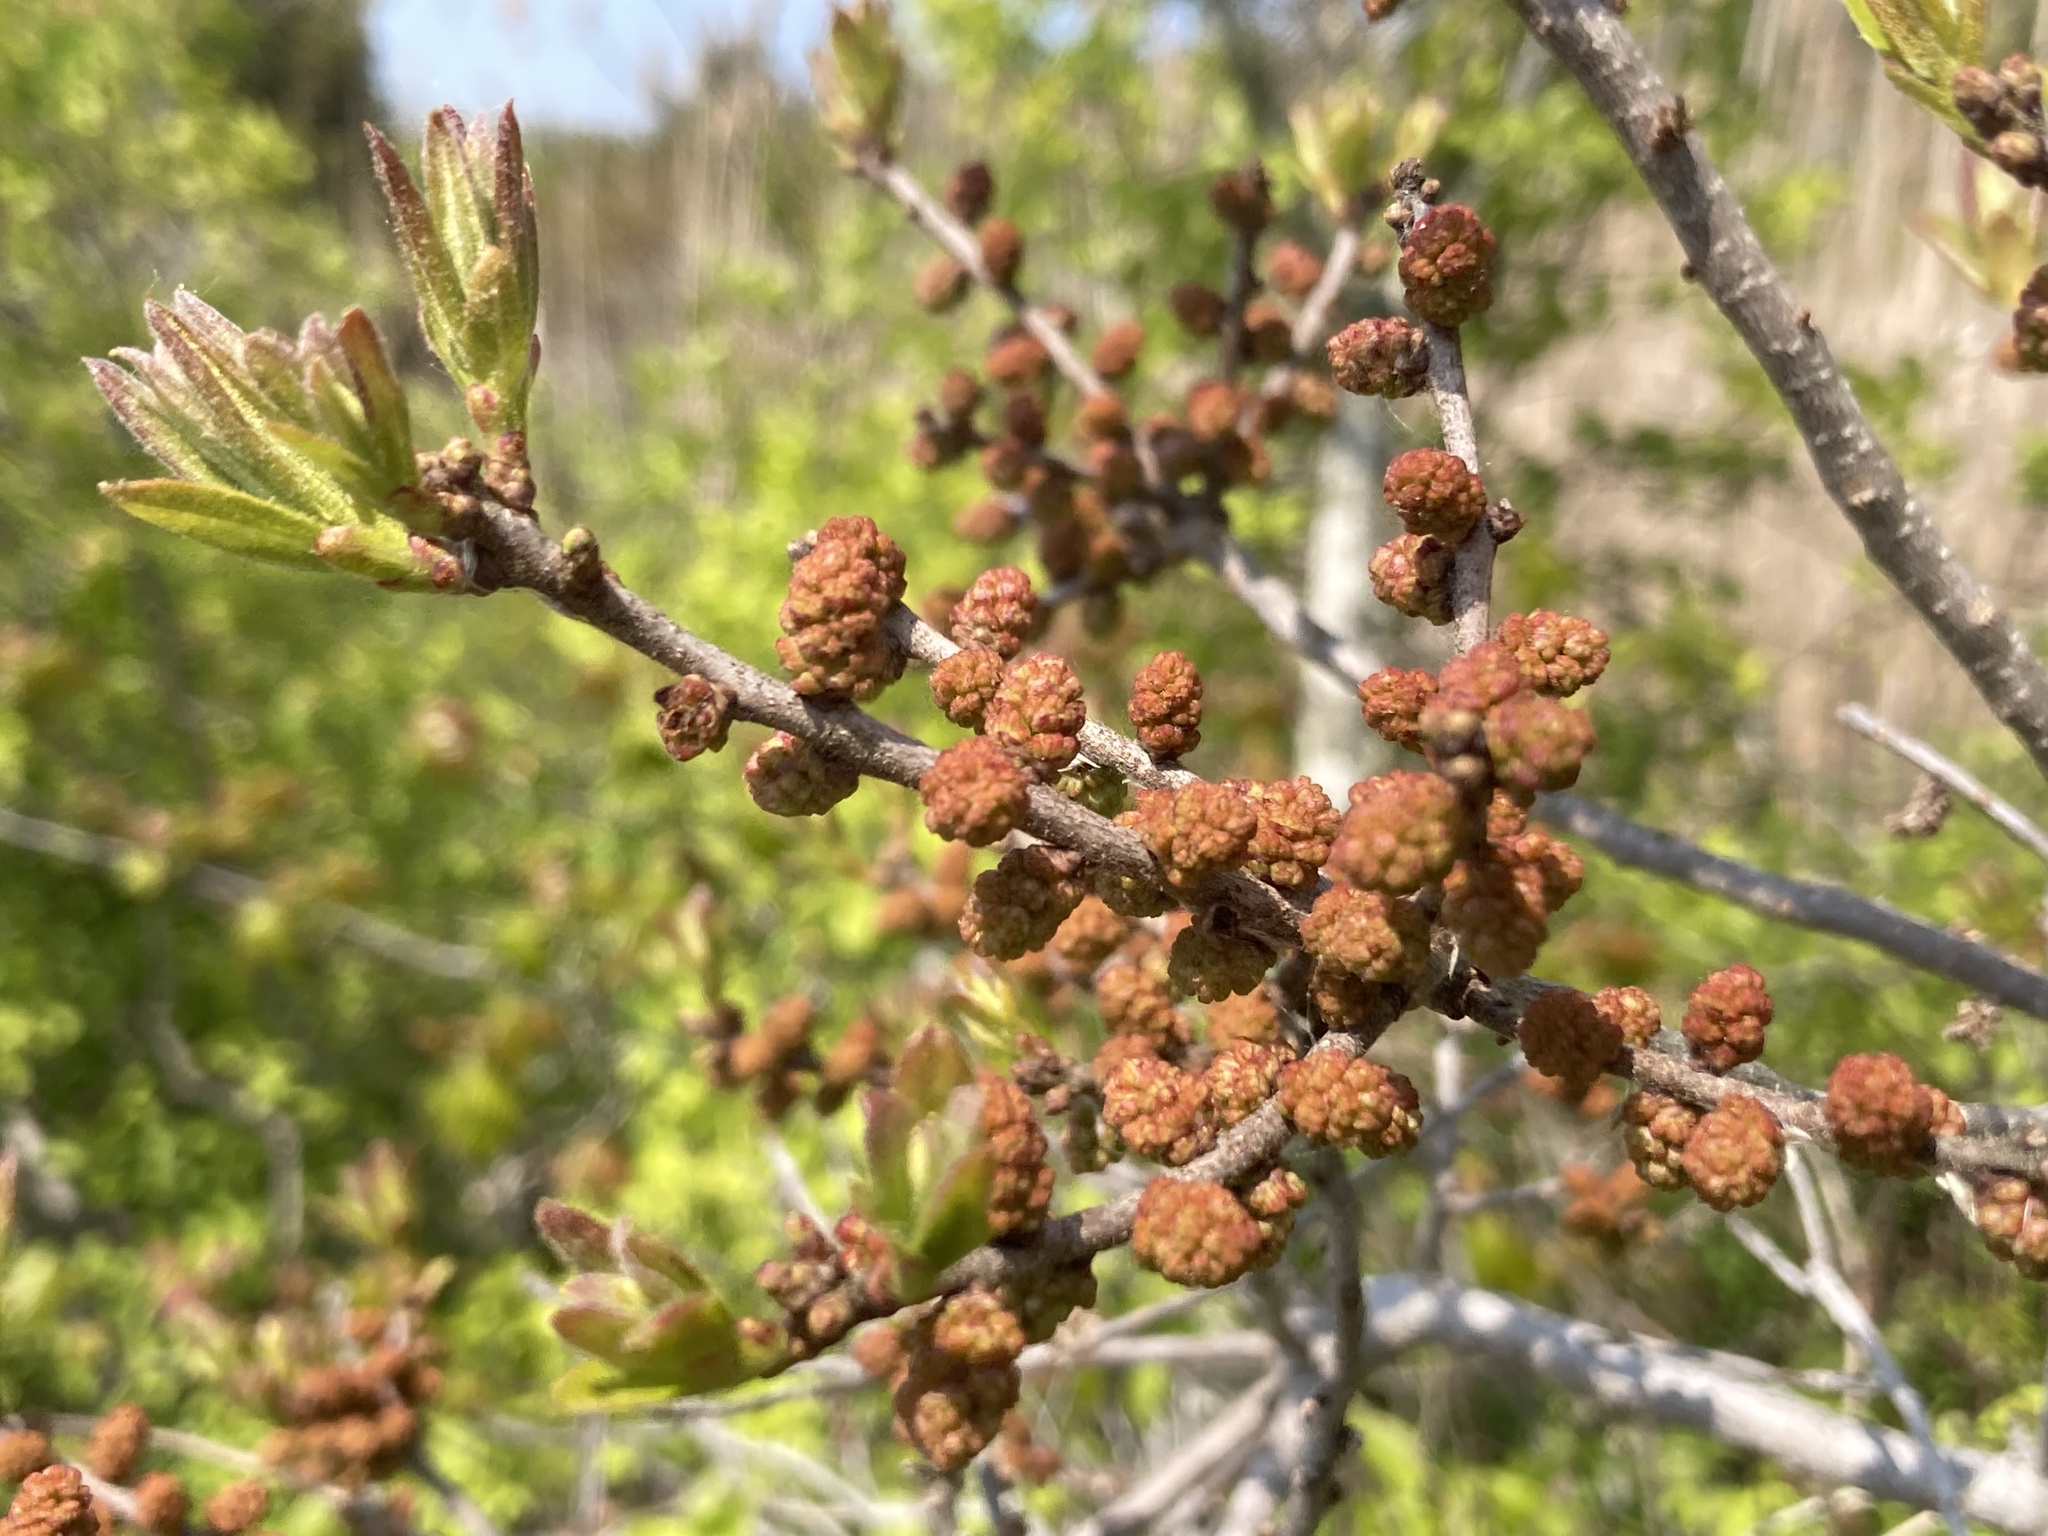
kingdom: Plantae
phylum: Tracheophyta
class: Magnoliopsida
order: Fagales
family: Myricaceae
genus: Morella
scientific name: Morella pensylvanica
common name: Northern bayberry
